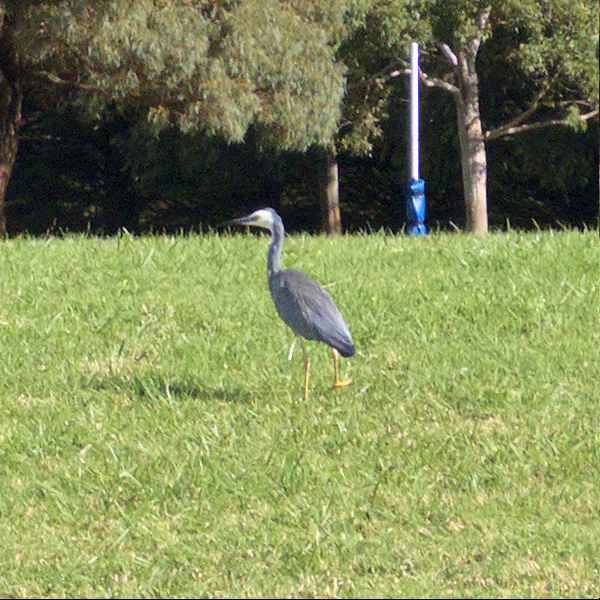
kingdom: Animalia
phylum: Chordata
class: Aves
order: Pelecaniformes
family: Ardeidae
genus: Egretta
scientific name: Egretta novaehollandiae
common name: White-faced heron
